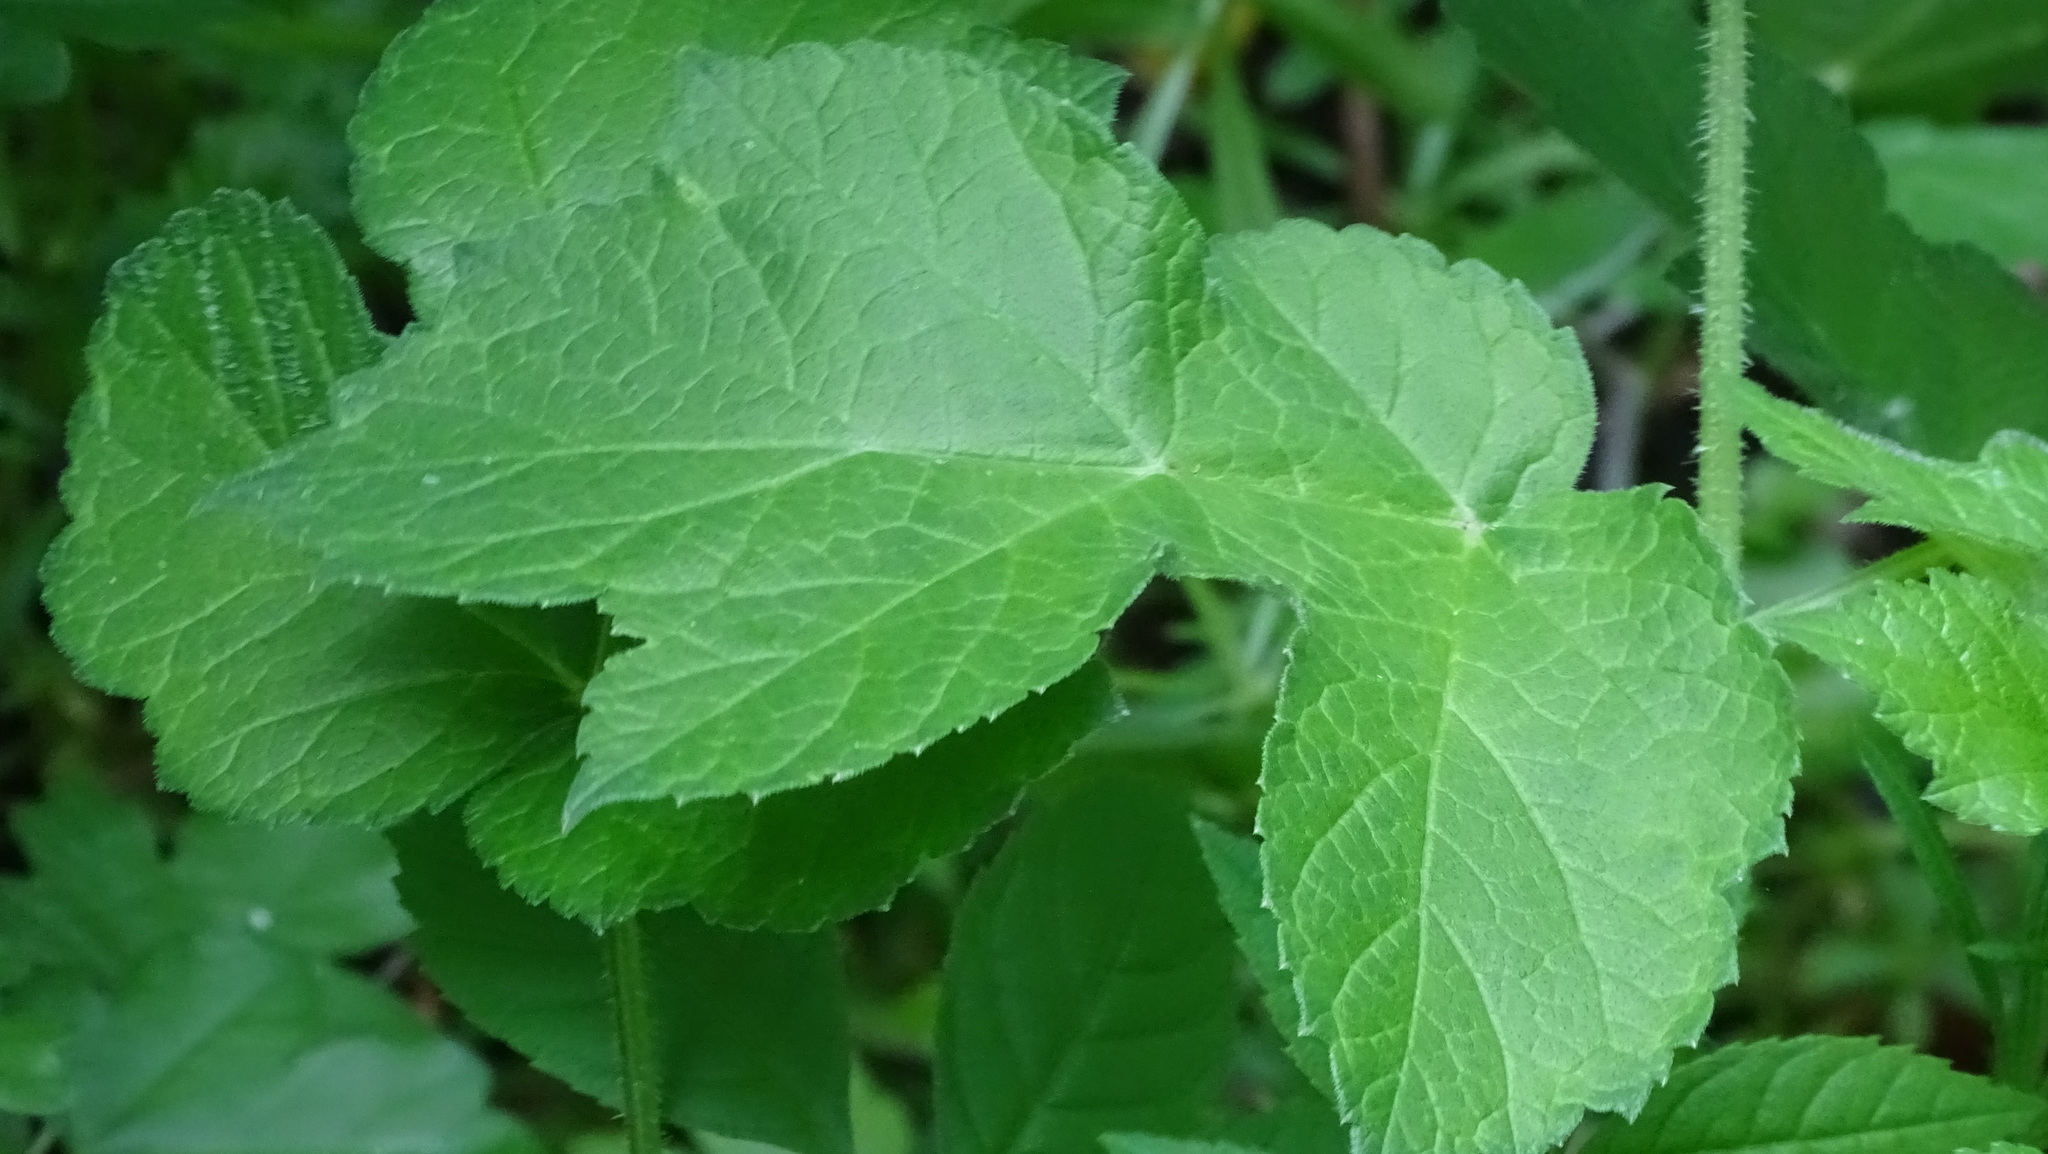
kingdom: Plantae
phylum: Tracheophyta
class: Magnoliopsida
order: Apiales
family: Apiaceae
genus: Heracleum
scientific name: Heracleum sphondylium
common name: Hogweed
